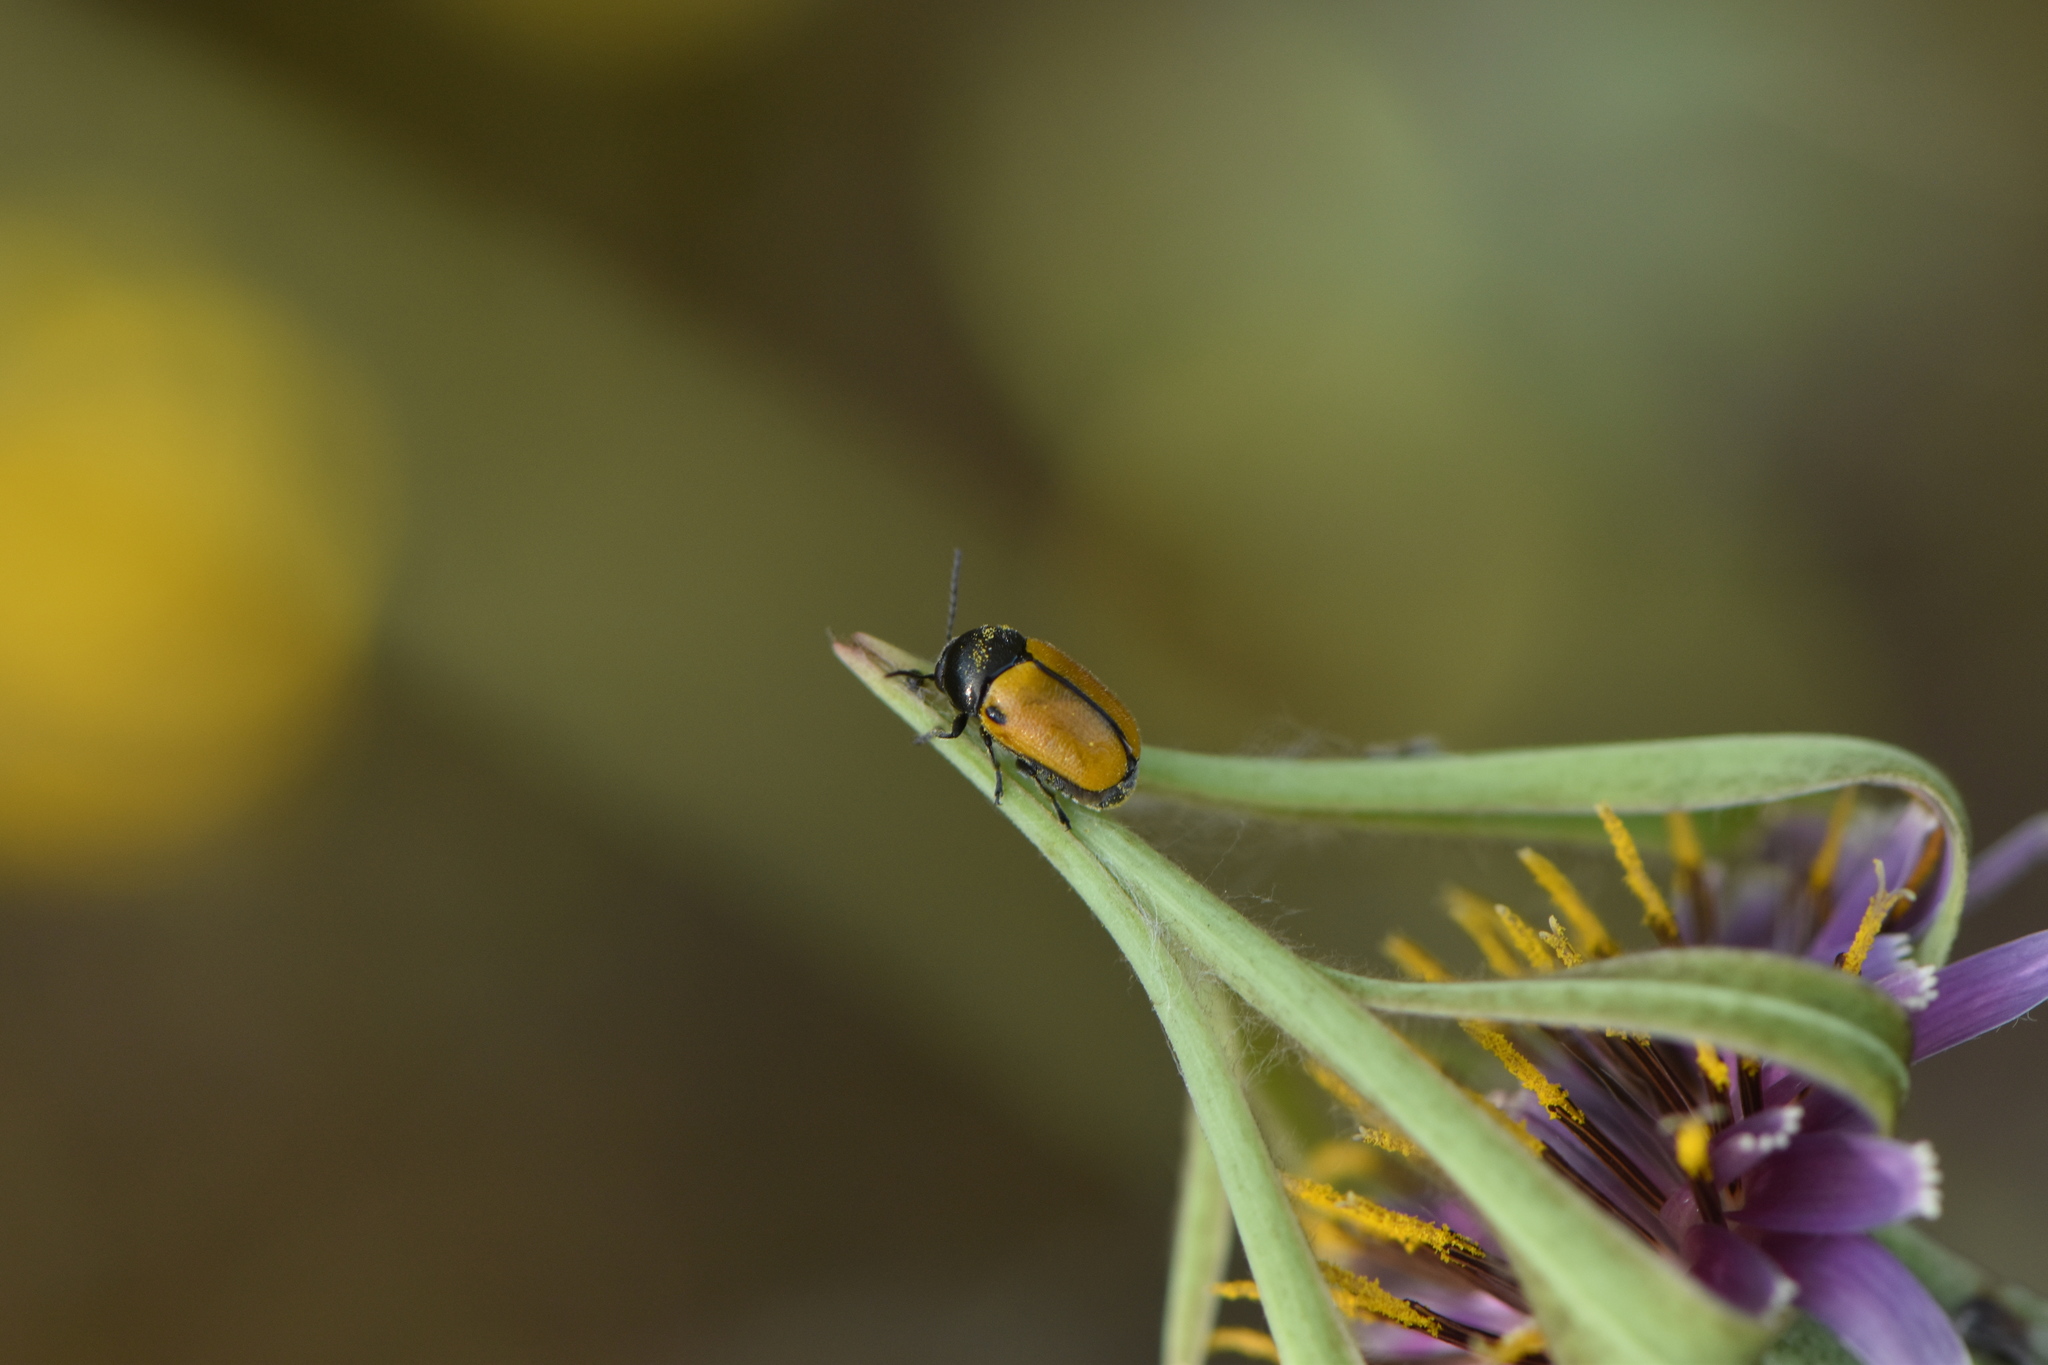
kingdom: Animalia
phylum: Arthropoda
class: Insecta
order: Coleoptera
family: Chrysomelidae
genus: Cryptocephalus
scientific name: Cryptocephalus rugicollis
